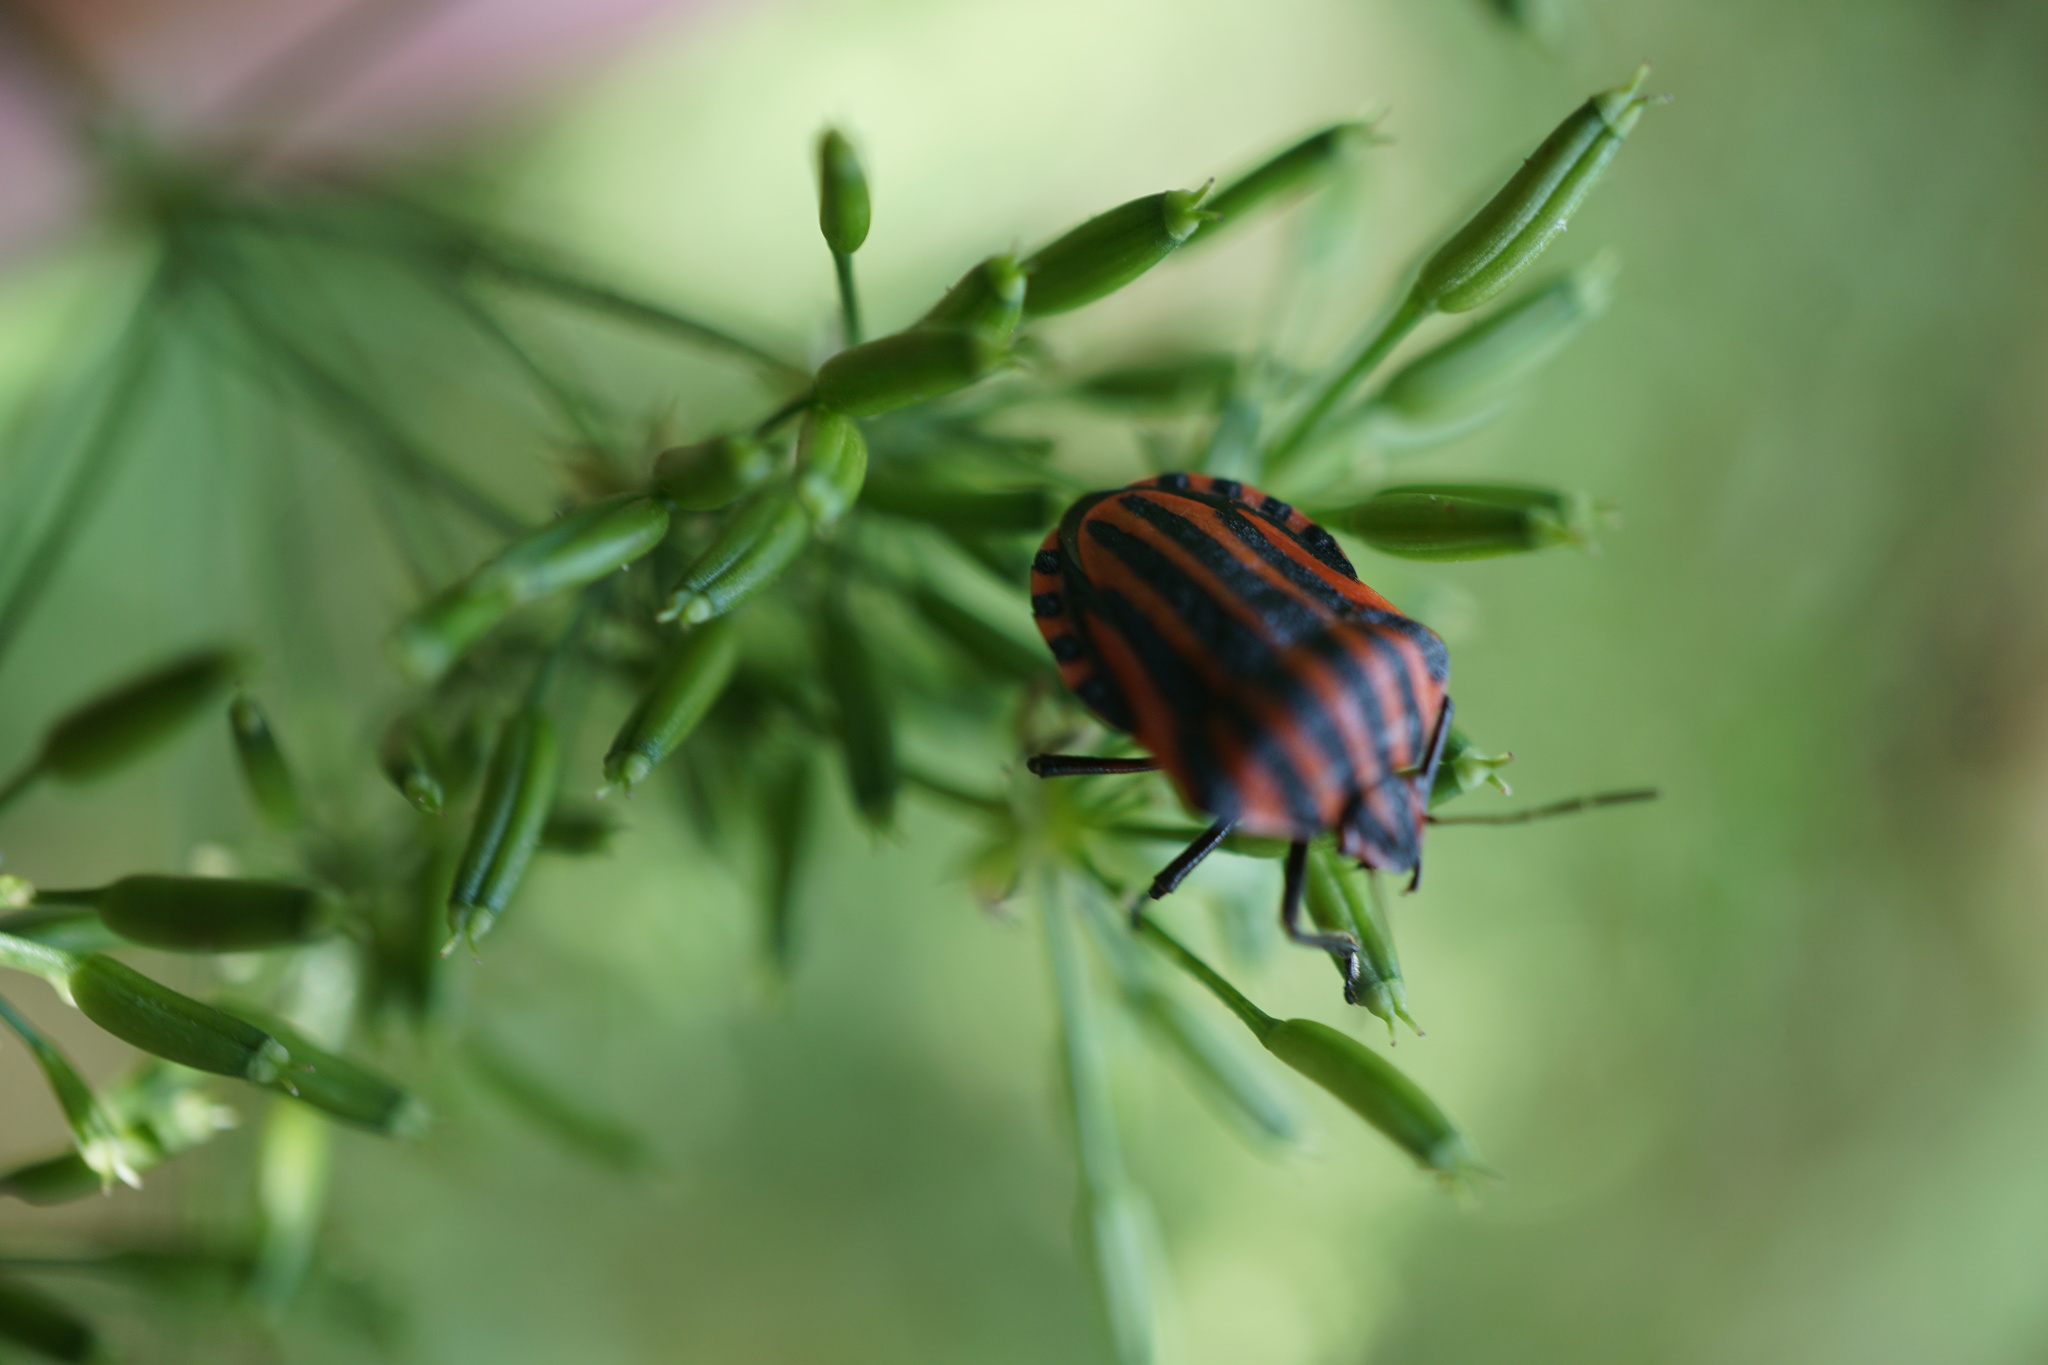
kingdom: Animalia
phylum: Arthropoda
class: Insecta
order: Hemiptera
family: Pentatomidae
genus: Graphosoma
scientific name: Graphosoma italicum
